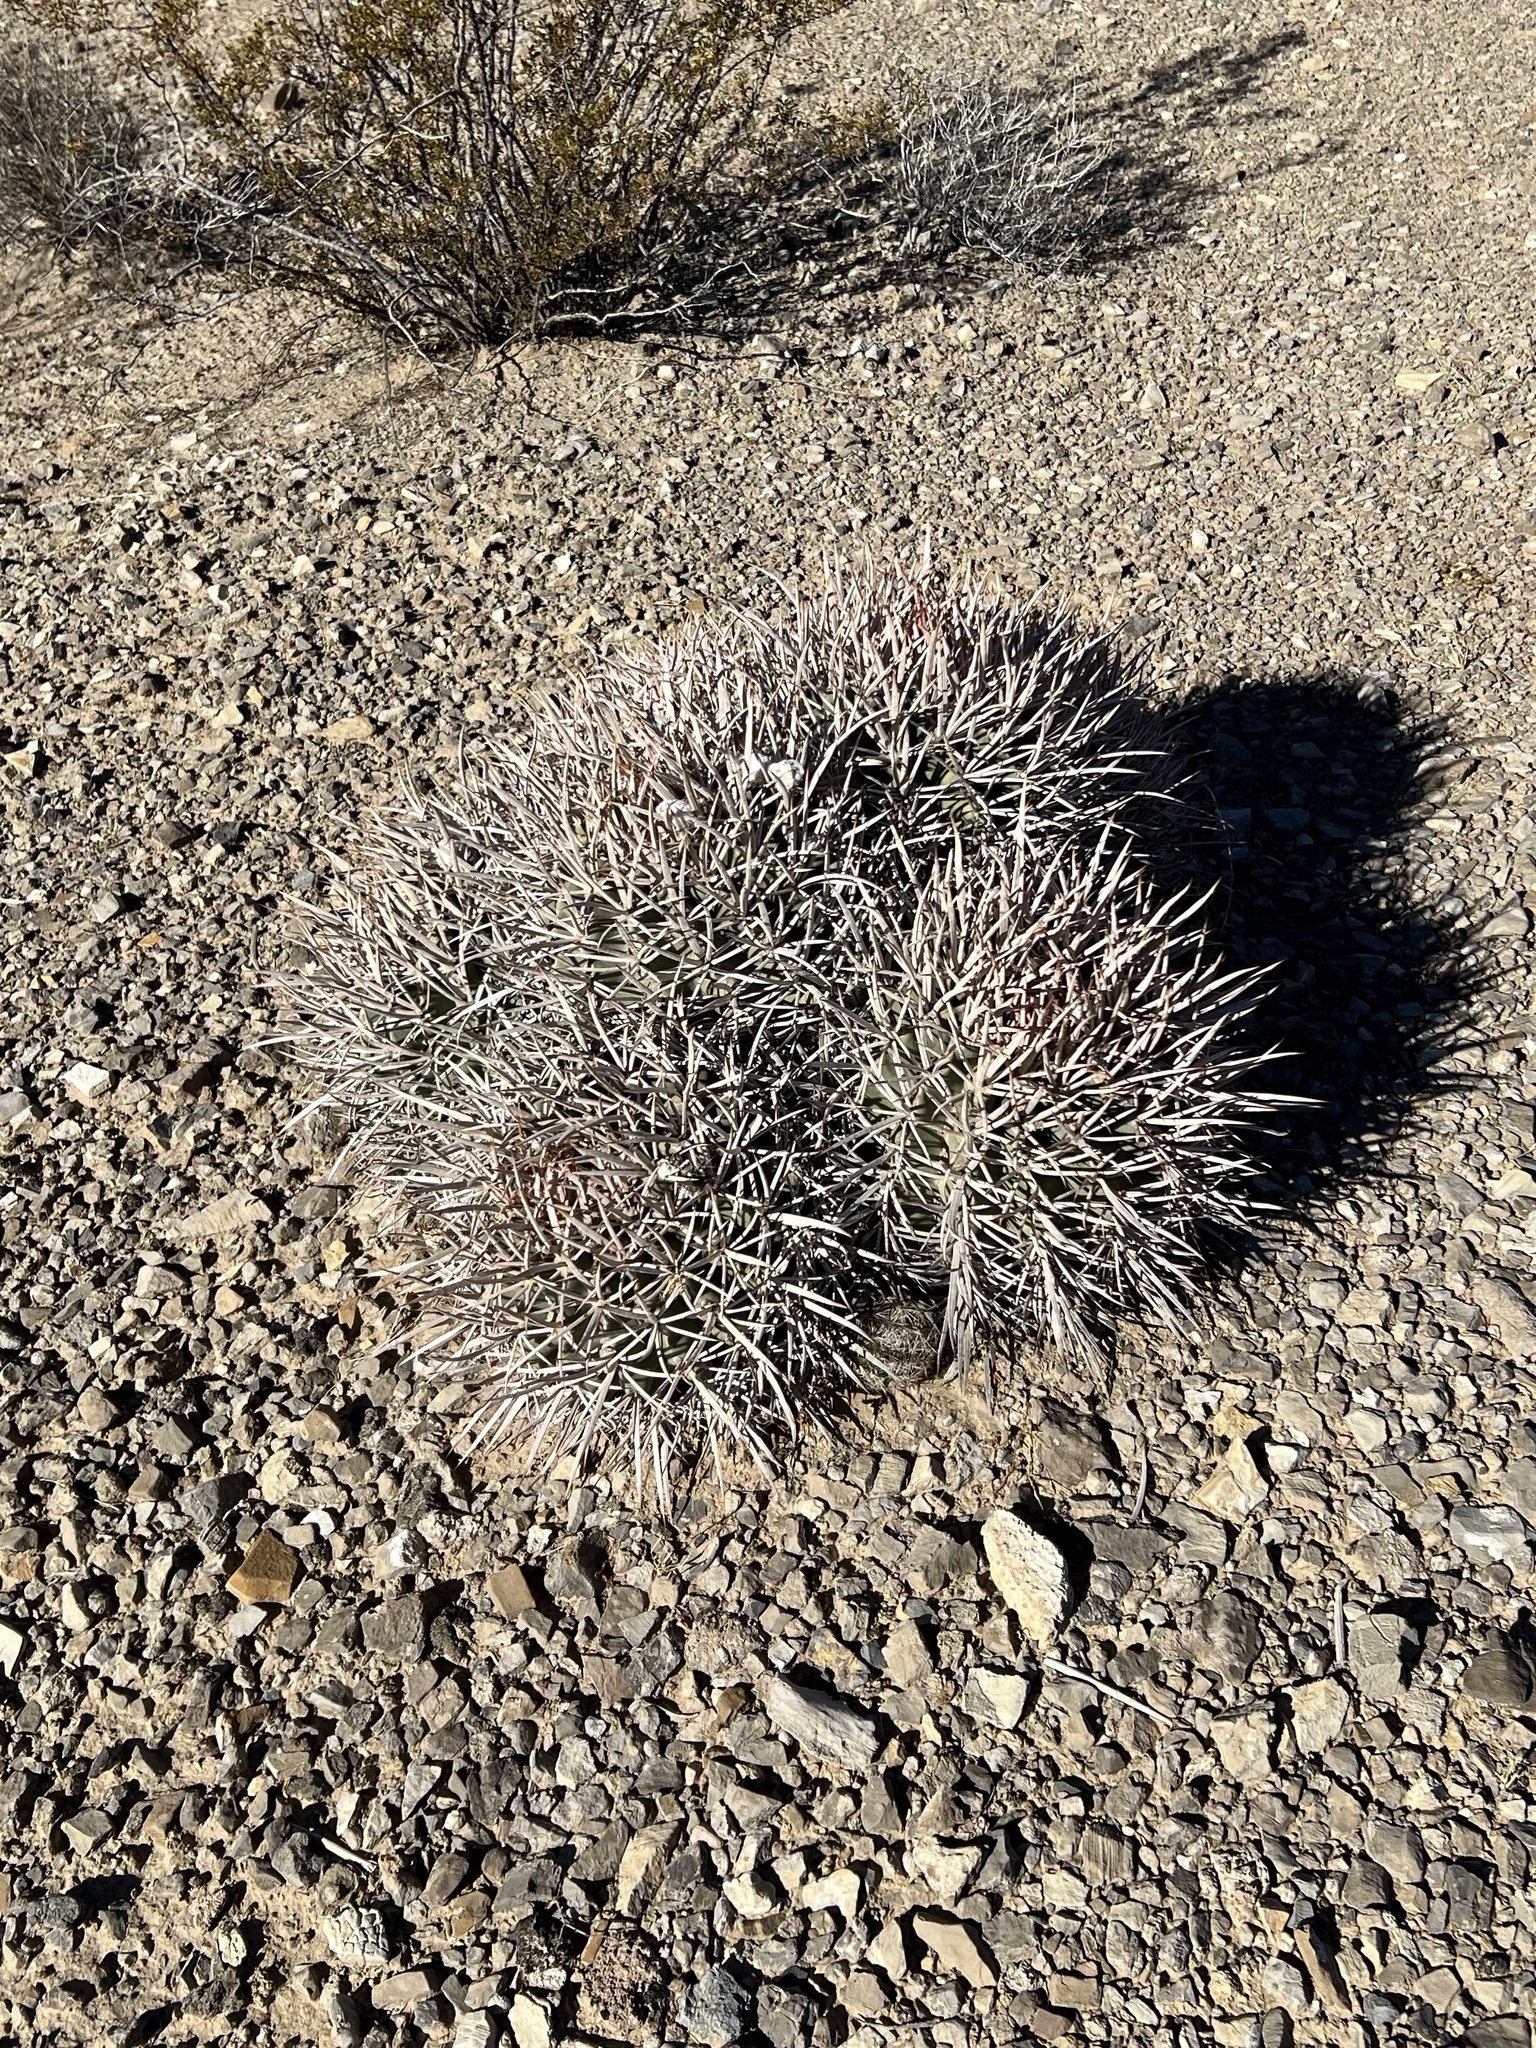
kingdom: Plantae
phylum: Tracheophyta
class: Magnoliopsida
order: Caryophyllales
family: Cactaceae
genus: Echinocactus
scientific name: Echinocactus polycephalus
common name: Cottontop cactus
